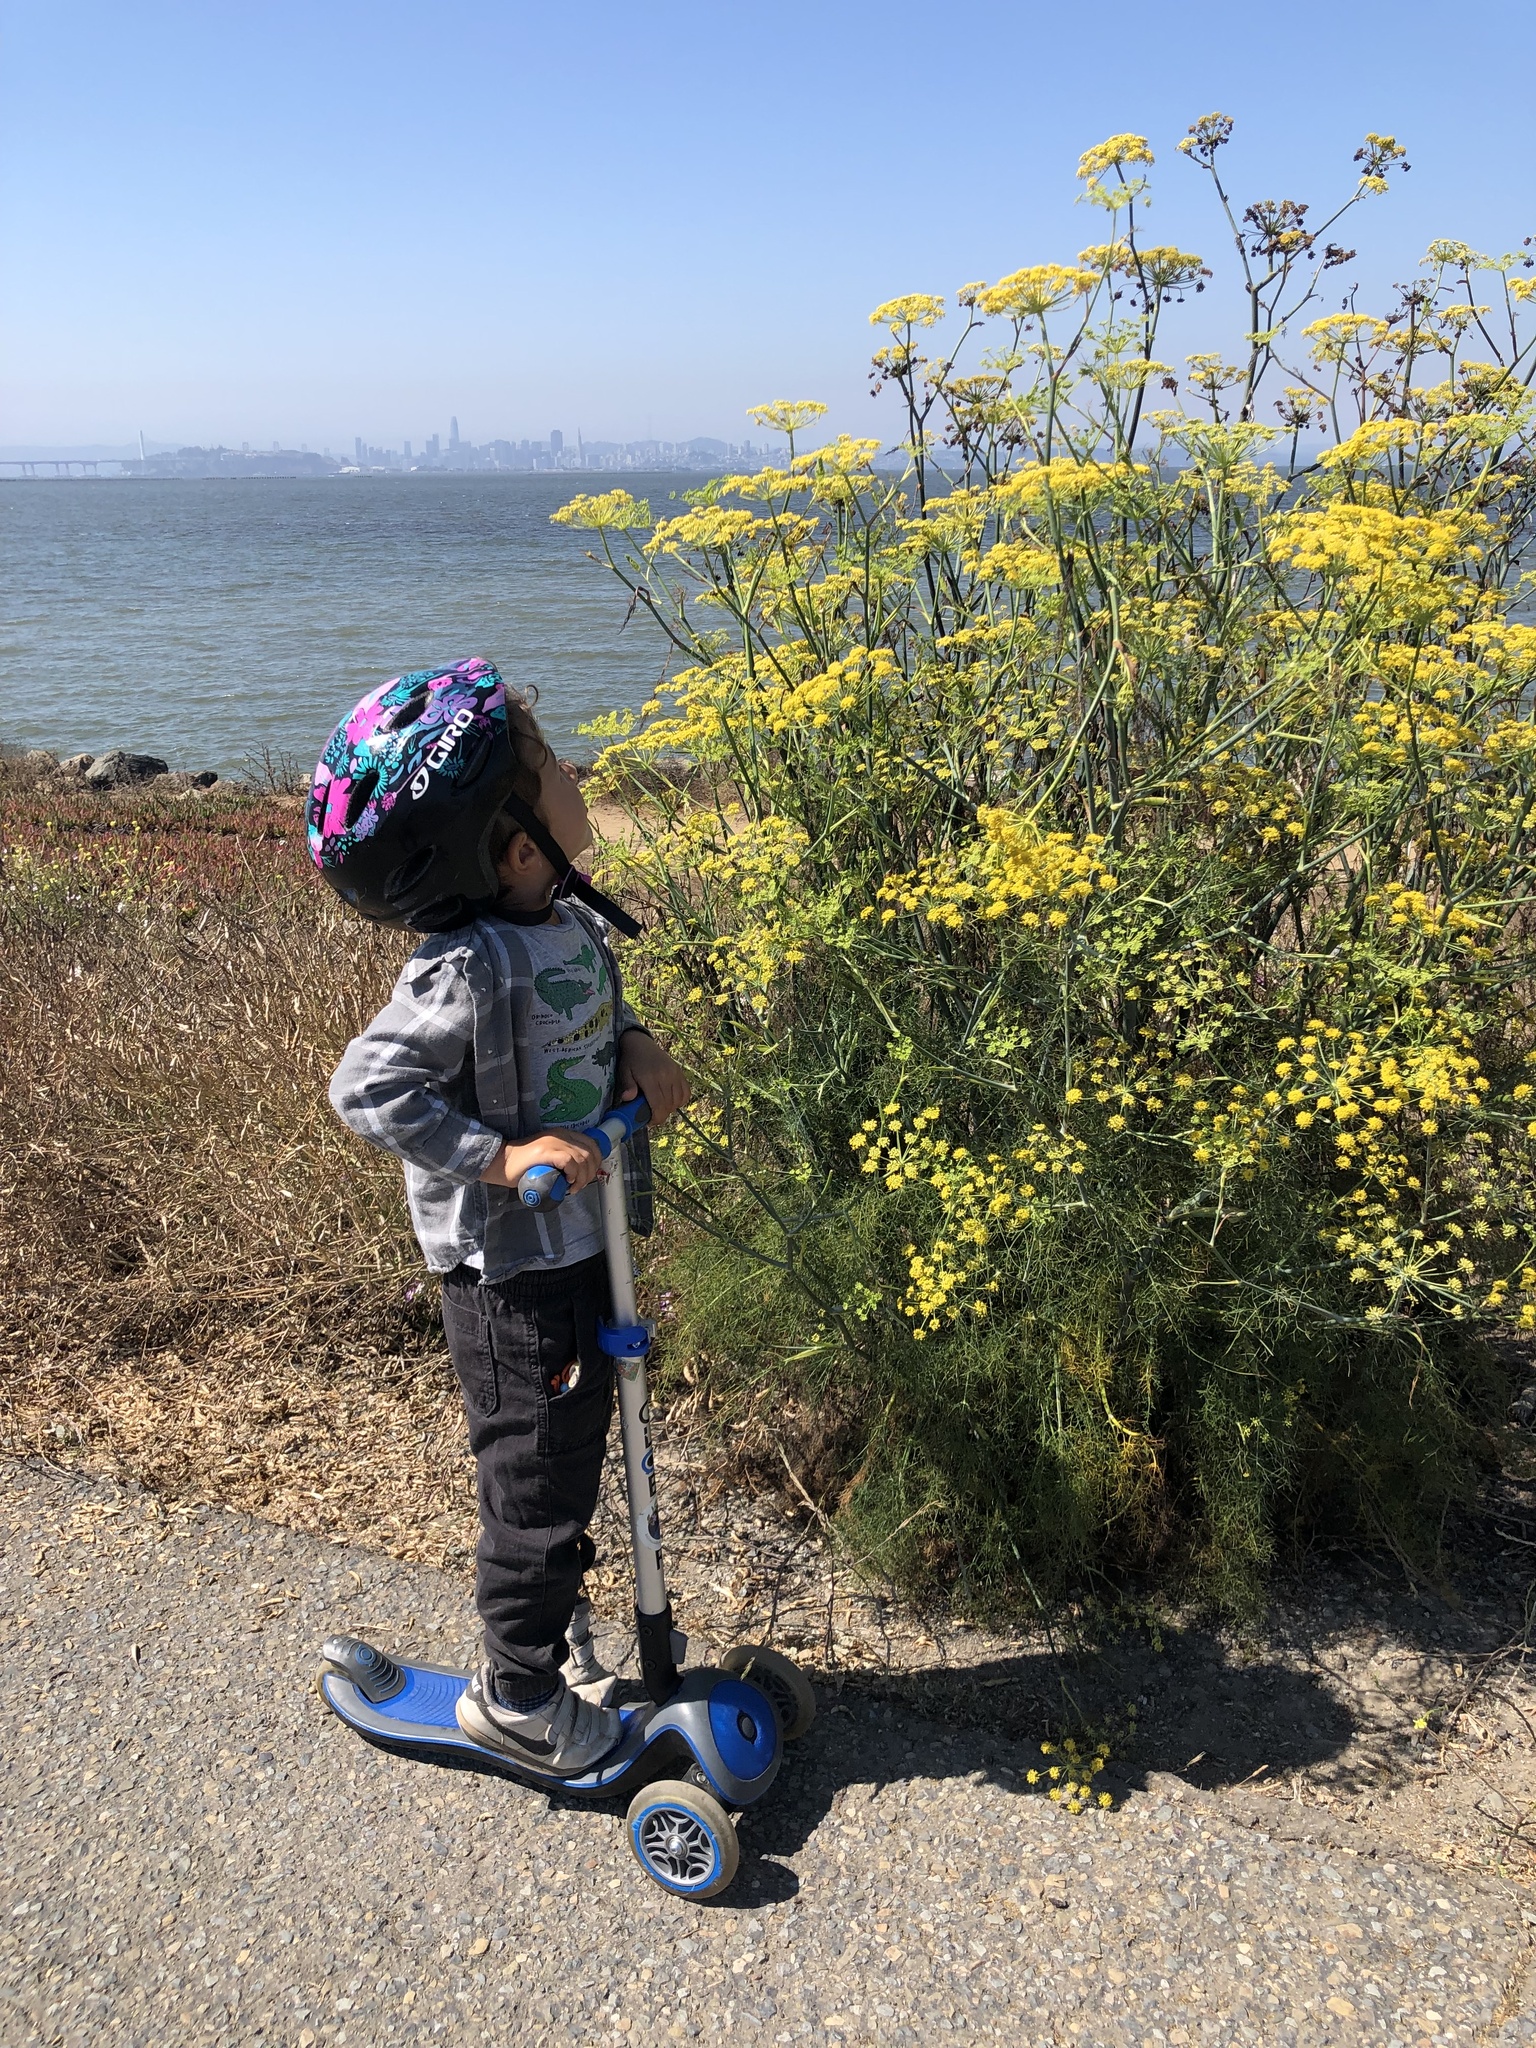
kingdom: Plantae
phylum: Tracheophyta
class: Magnoliopsida
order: Apiales
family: Apiaceae
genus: Foeniculum
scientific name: Foeniculum vulgare
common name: Fennel
